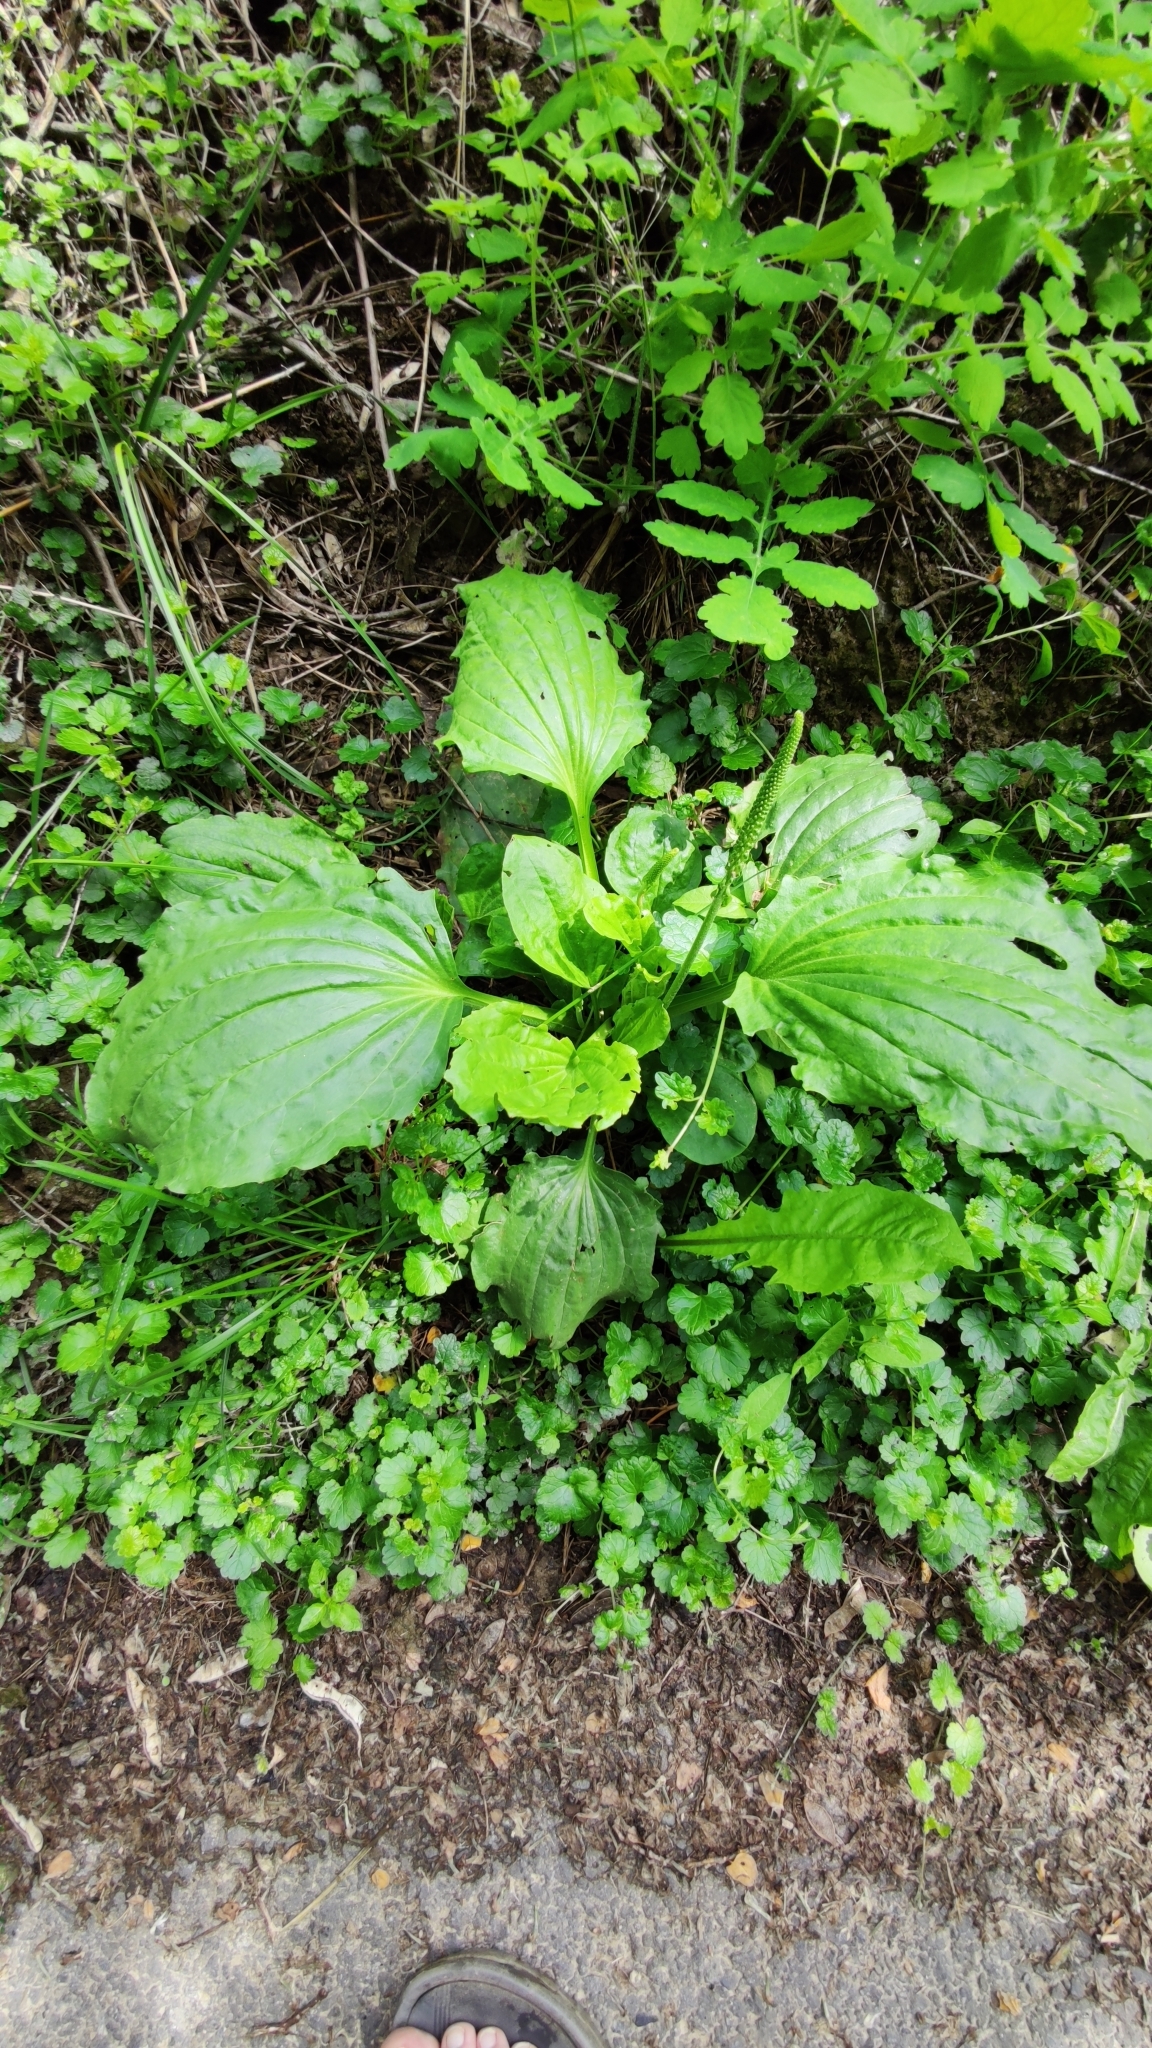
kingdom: Plantae
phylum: Tracheophyta
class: Magnoliopsida
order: Lamiales
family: Plantaginaceae
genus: Plantago
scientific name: Plantago major
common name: Common plantain
